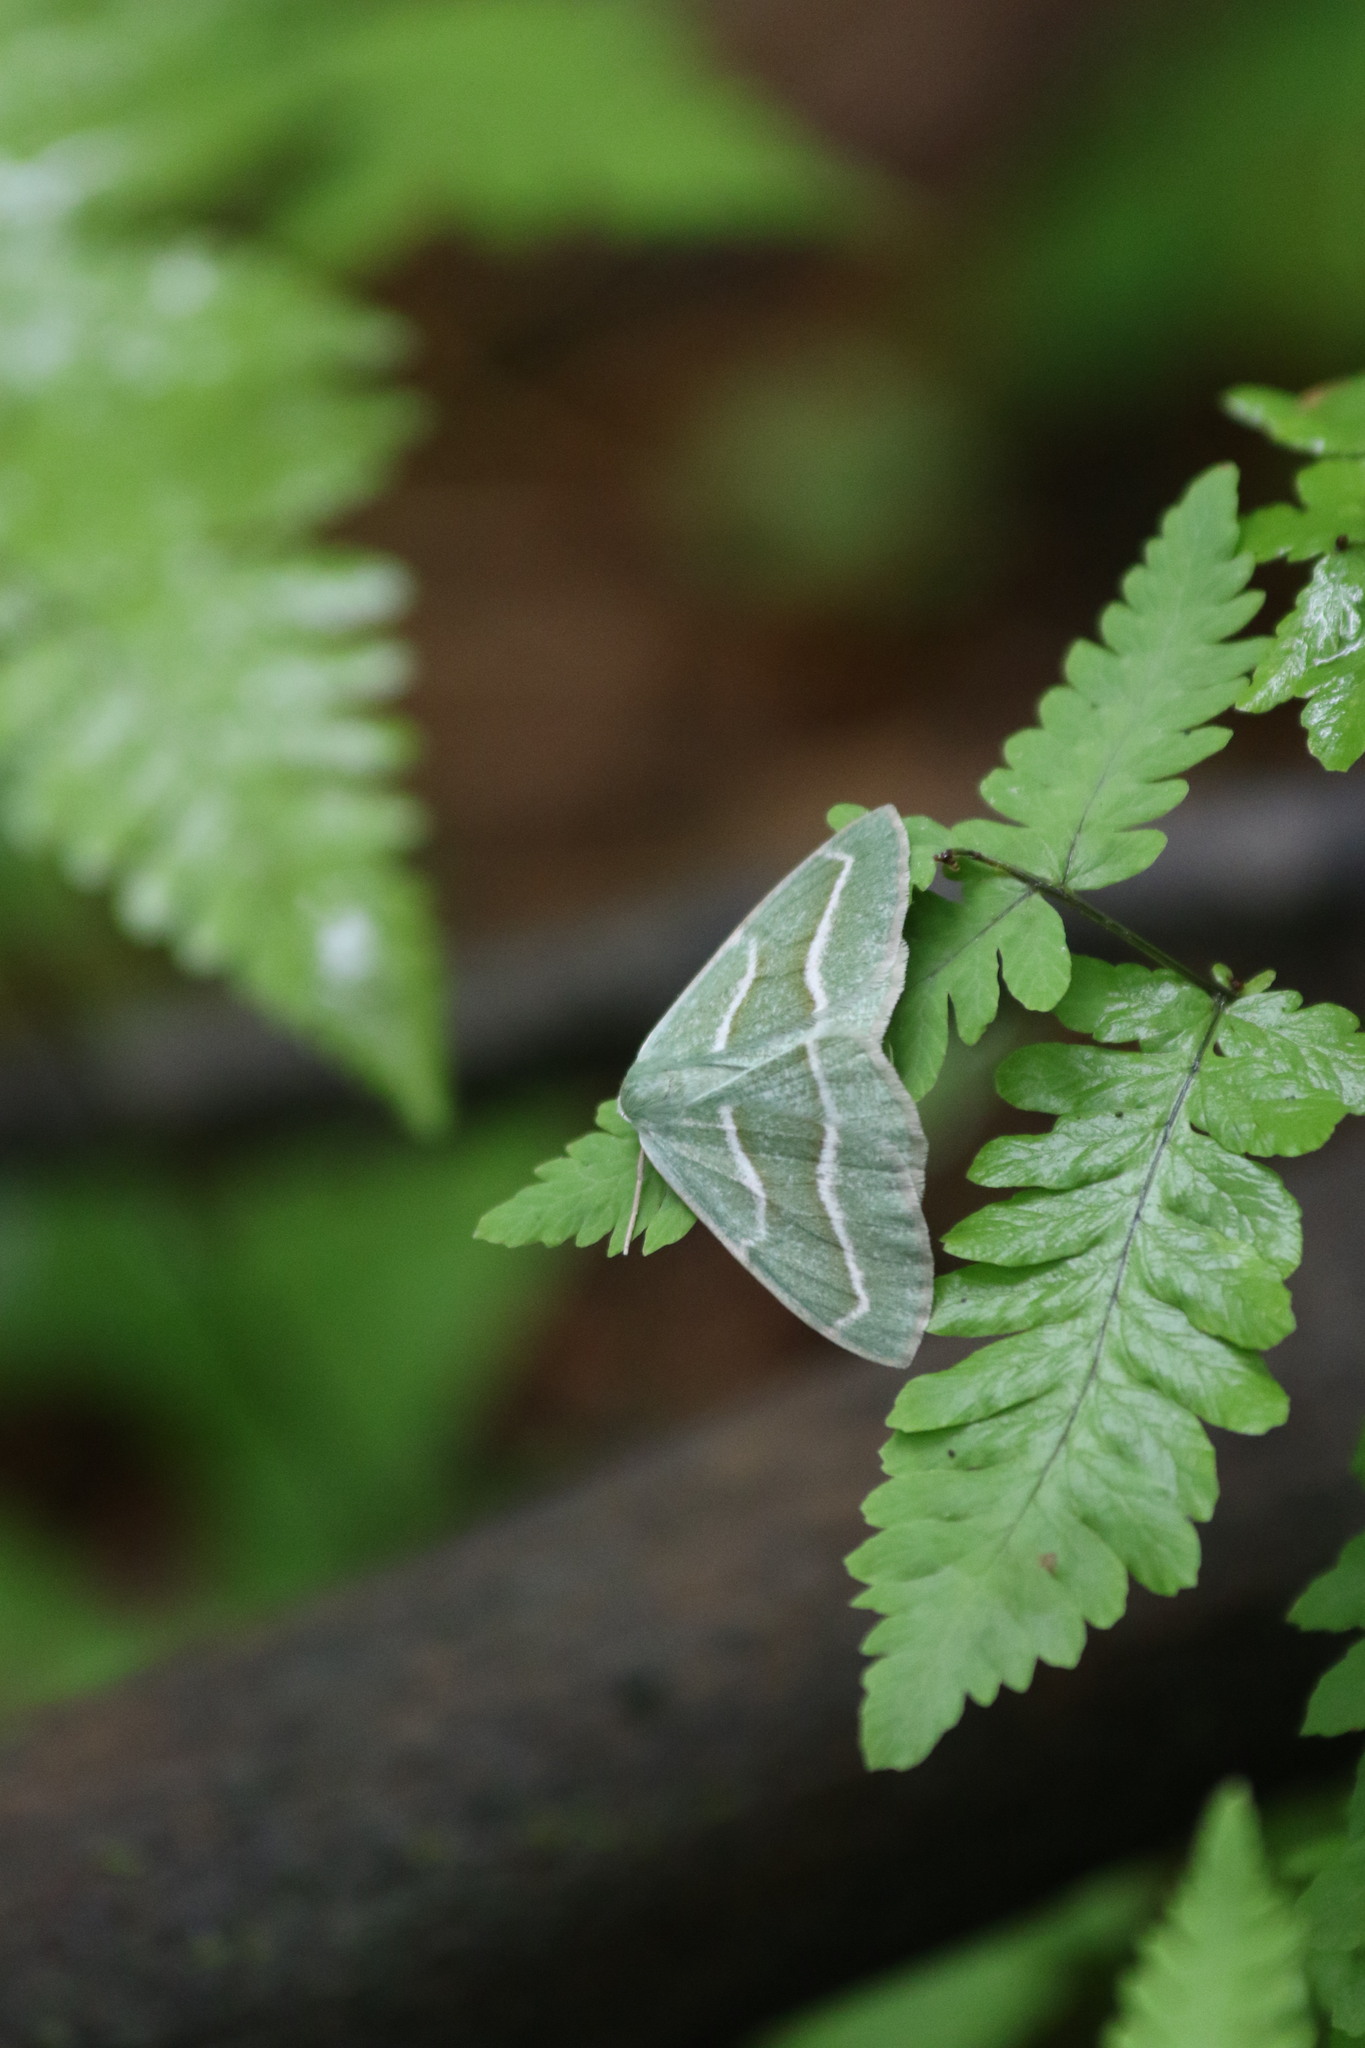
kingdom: Animalia
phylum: Arthropoda
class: Insecta
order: Lepidoptera
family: Geometridae
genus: Hylaea
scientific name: Hylaea fasciaria
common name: Barred red
